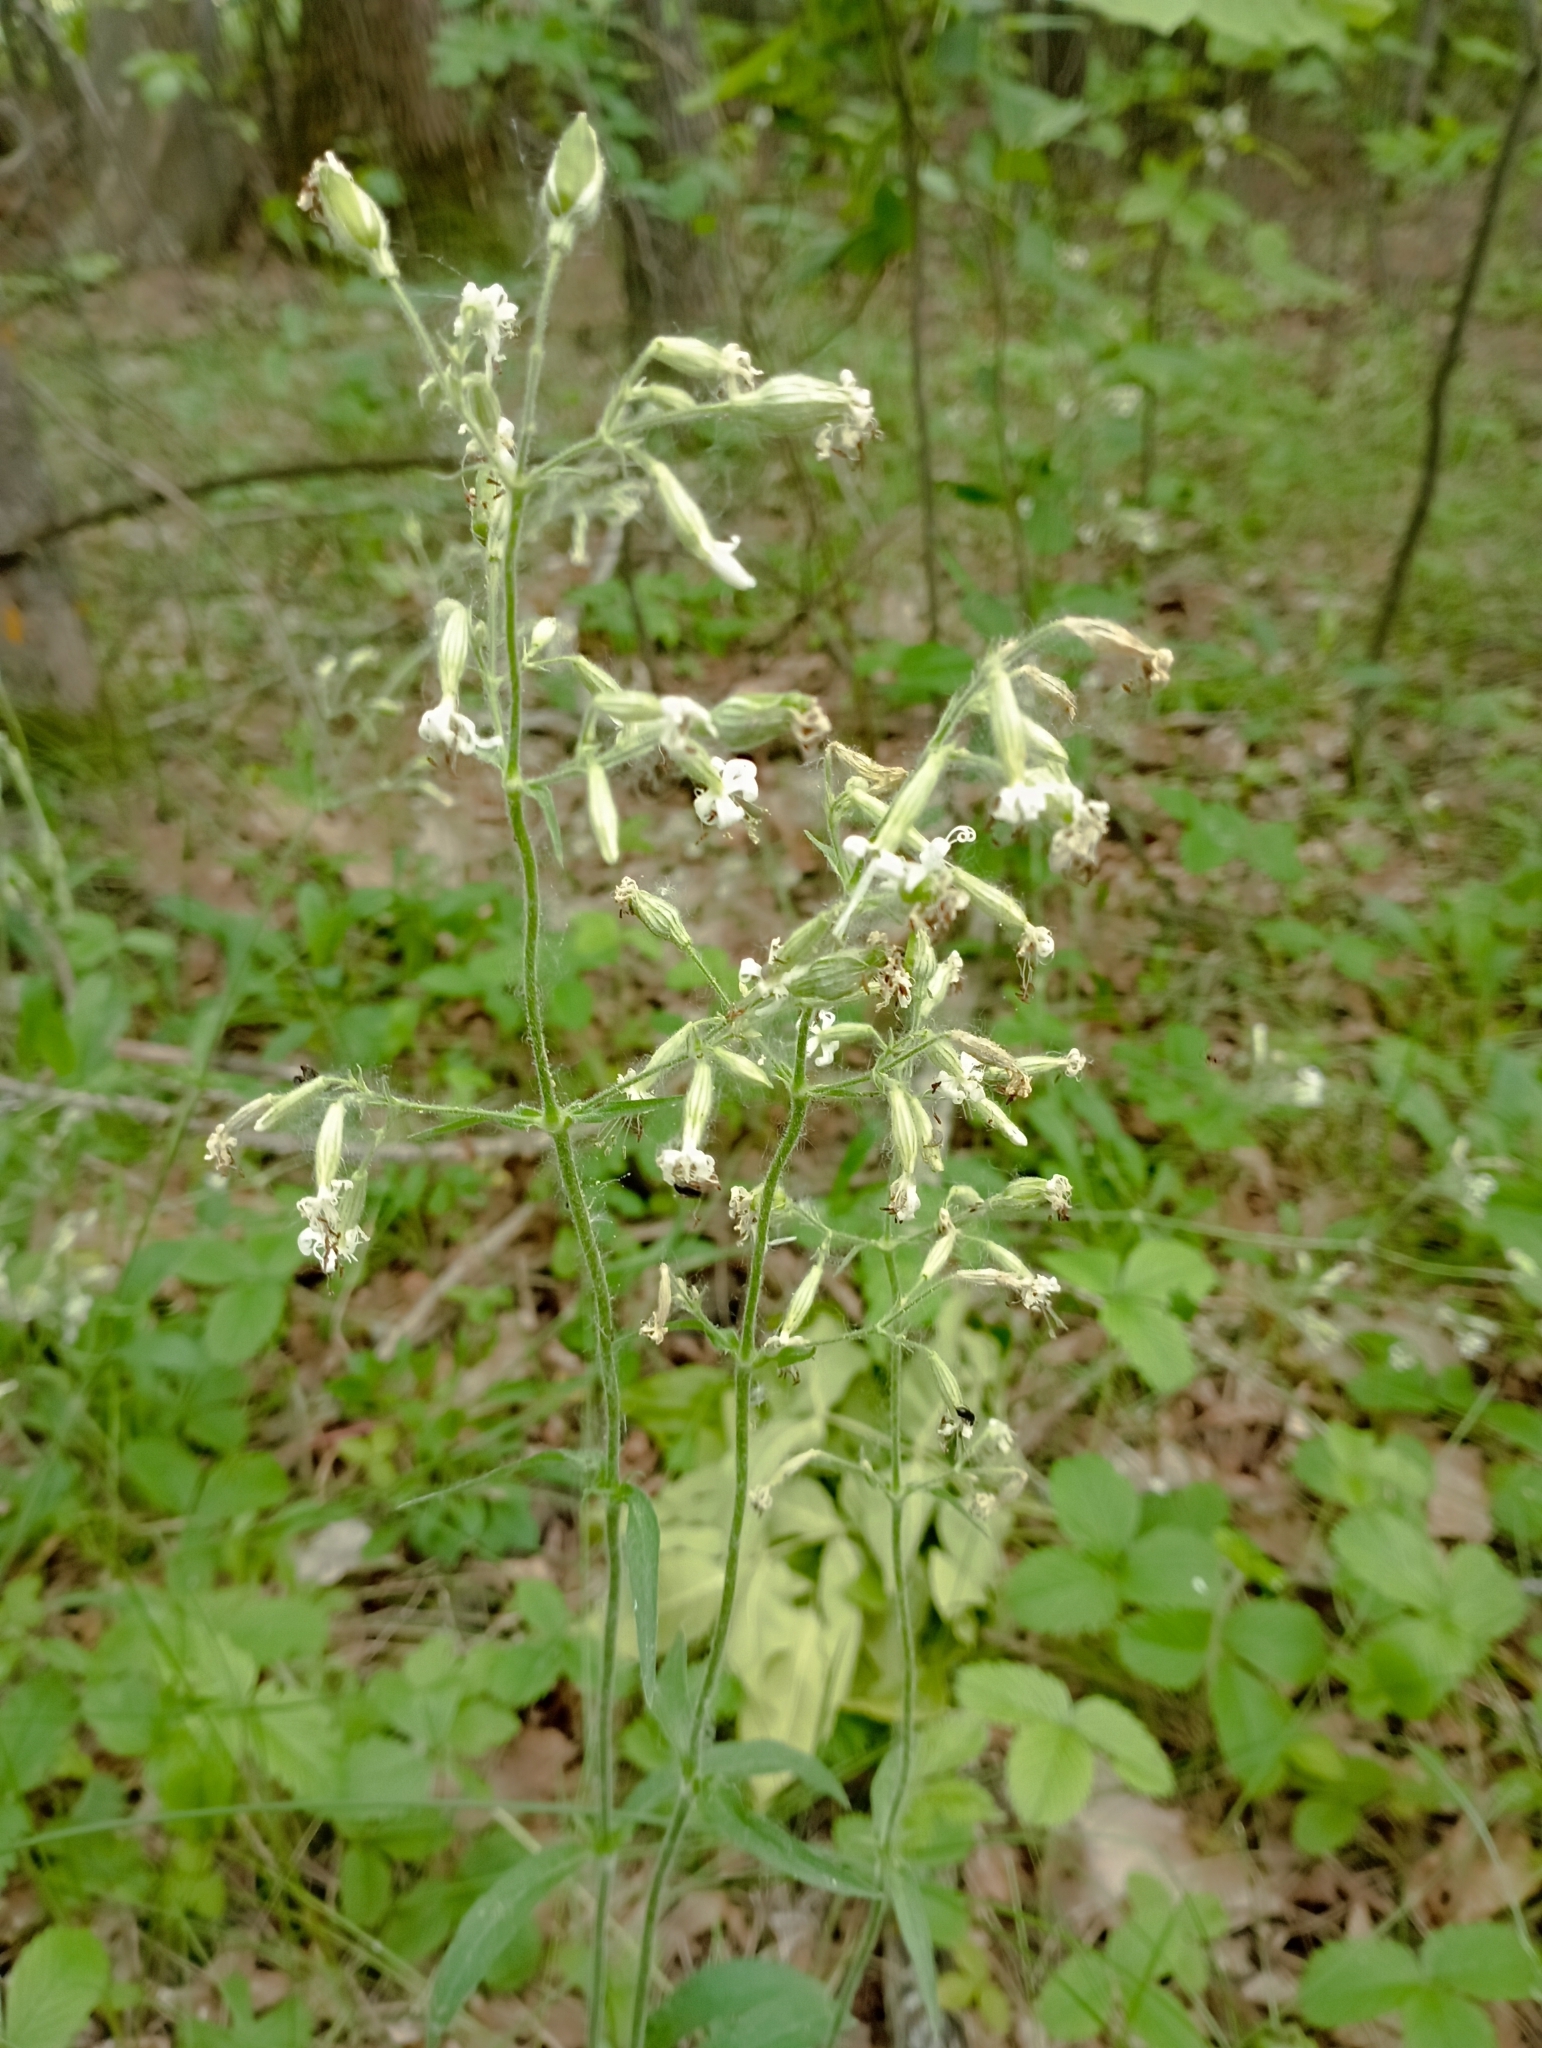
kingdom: Plantae
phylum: Tracheophyta
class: Magnoliopsida
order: Caryophyllales
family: Caryophyllaceae
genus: Silene
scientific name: Silene nutans
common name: Nottingham catchfly
